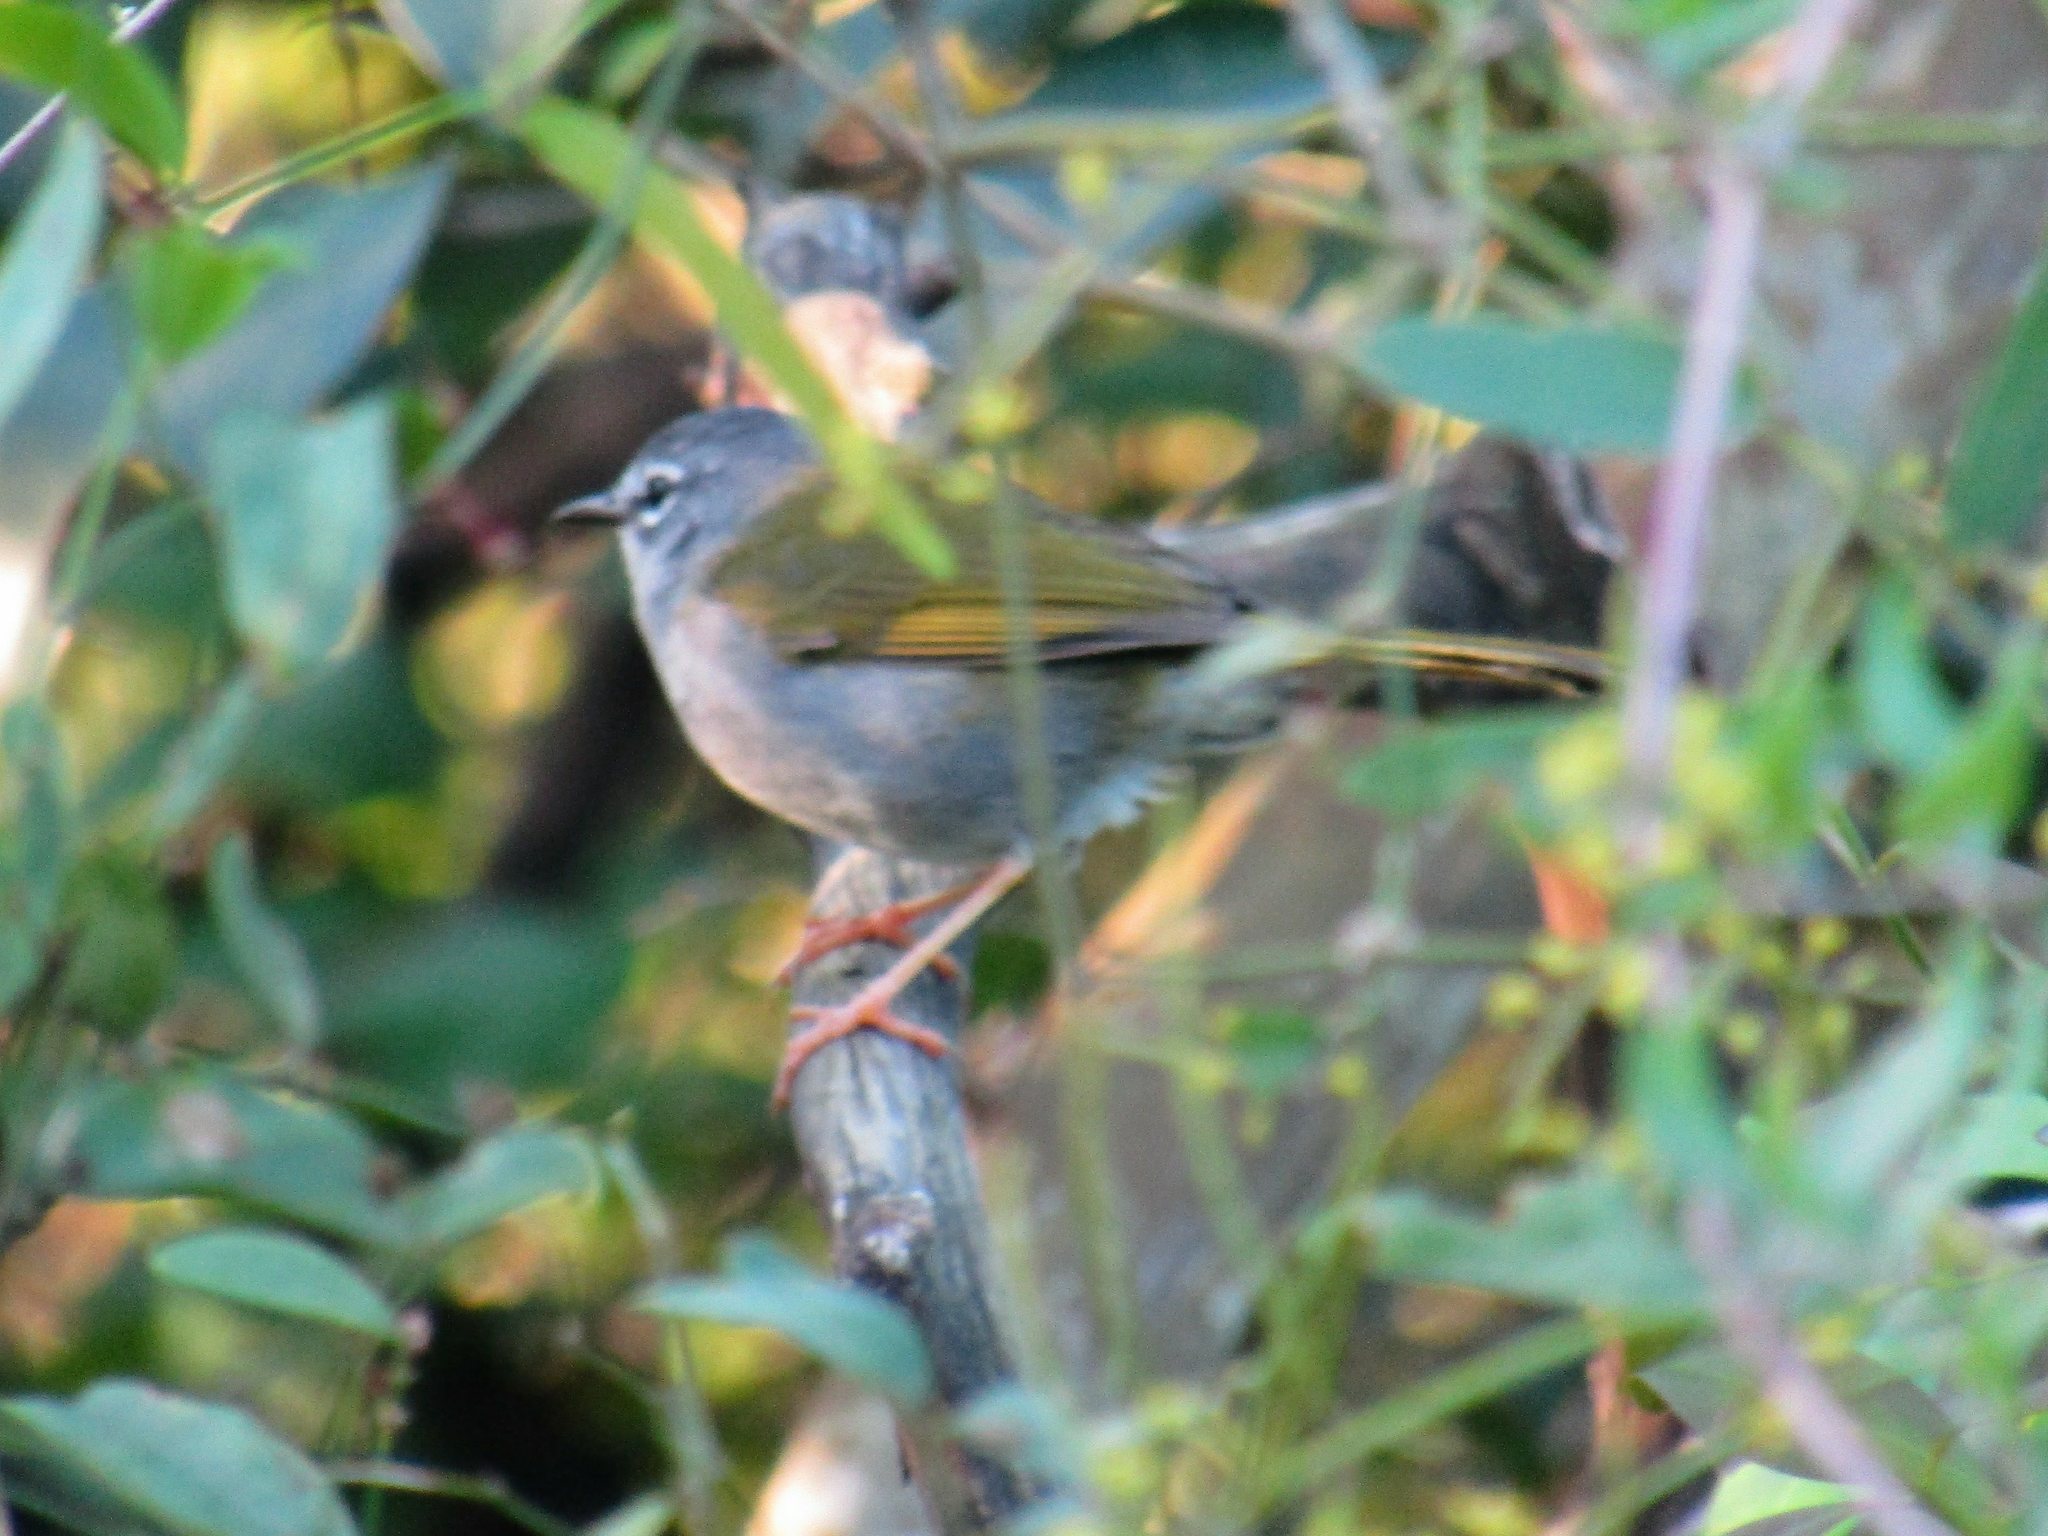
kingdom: Animalia
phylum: Chordata
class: Aves
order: Passeriformes
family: Parulidae
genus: Myiothlypis
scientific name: Myiothlypis leucoblephara
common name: White-rimmed warbler
